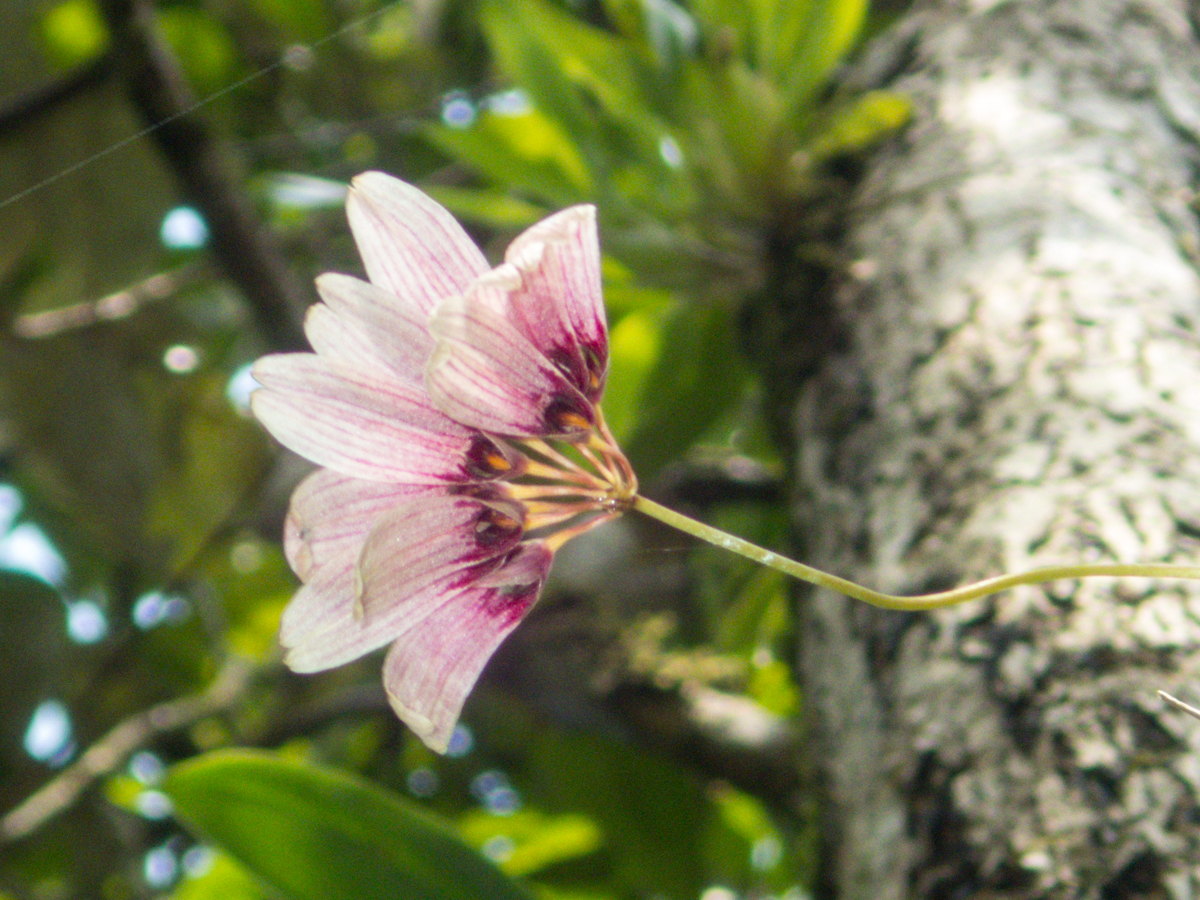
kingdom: Plantae
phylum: Tracheophyta
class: Liliopsida
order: Asparagales
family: Orchidaceae
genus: Bulbophyllum
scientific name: Bulbophyllum lepidum
